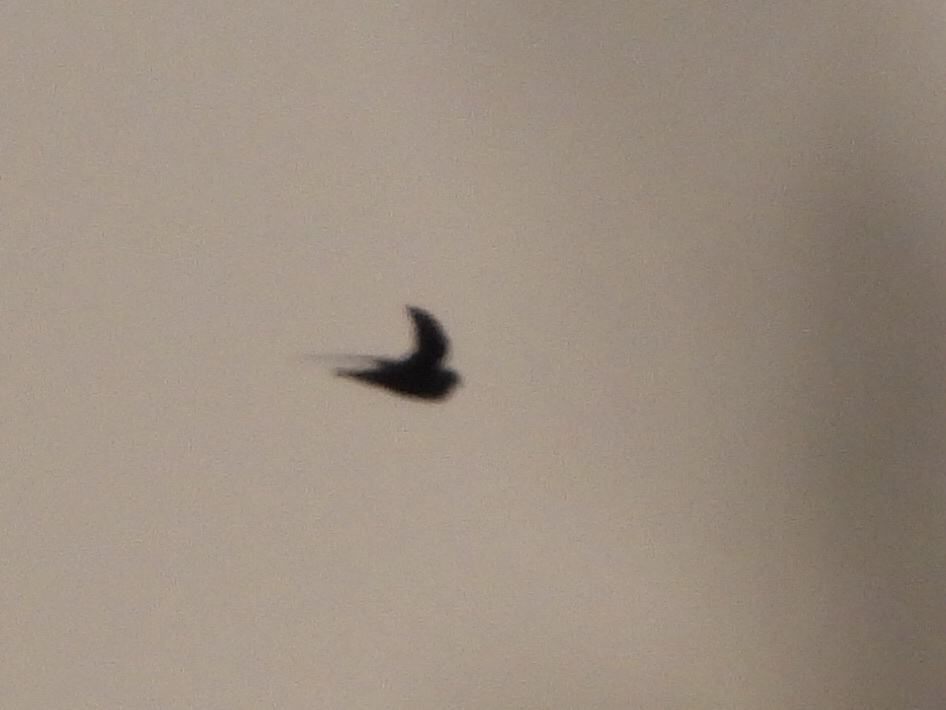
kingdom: Animalia
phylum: Chordata
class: Aves
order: Caprimulgiformes
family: Caprimulgidae
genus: Chordeiles
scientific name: Chordeiles minor
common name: Common nighthawk
